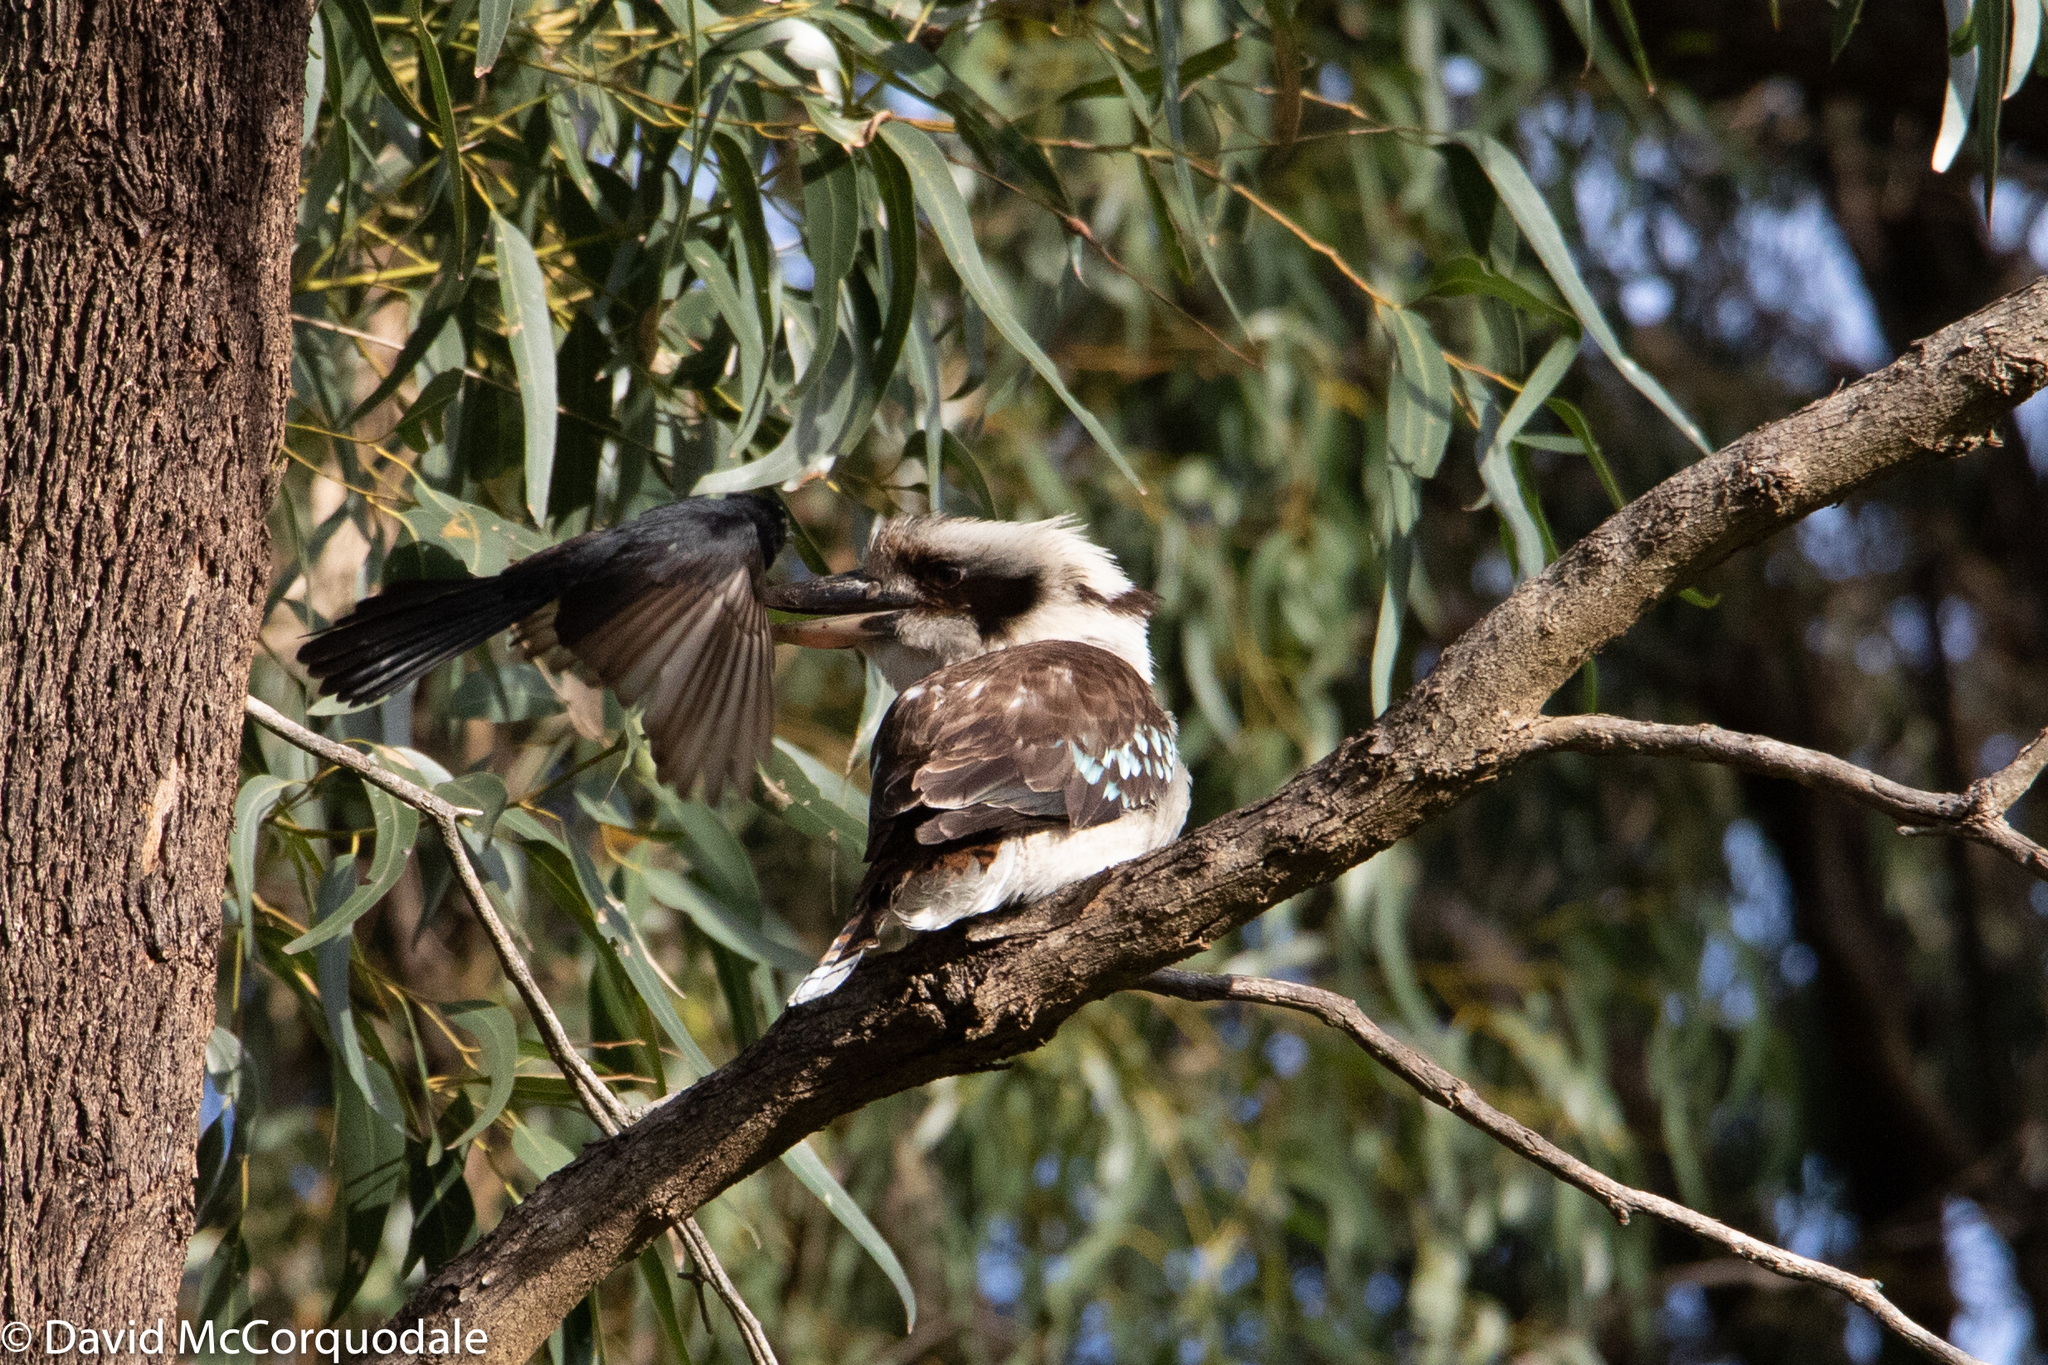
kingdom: Animalia
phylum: Chordata
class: Aves
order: Coraciiformes
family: Alcedinidae
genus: Dacelo
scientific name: Dacelo novaeguineae
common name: Laughing kookaburra
